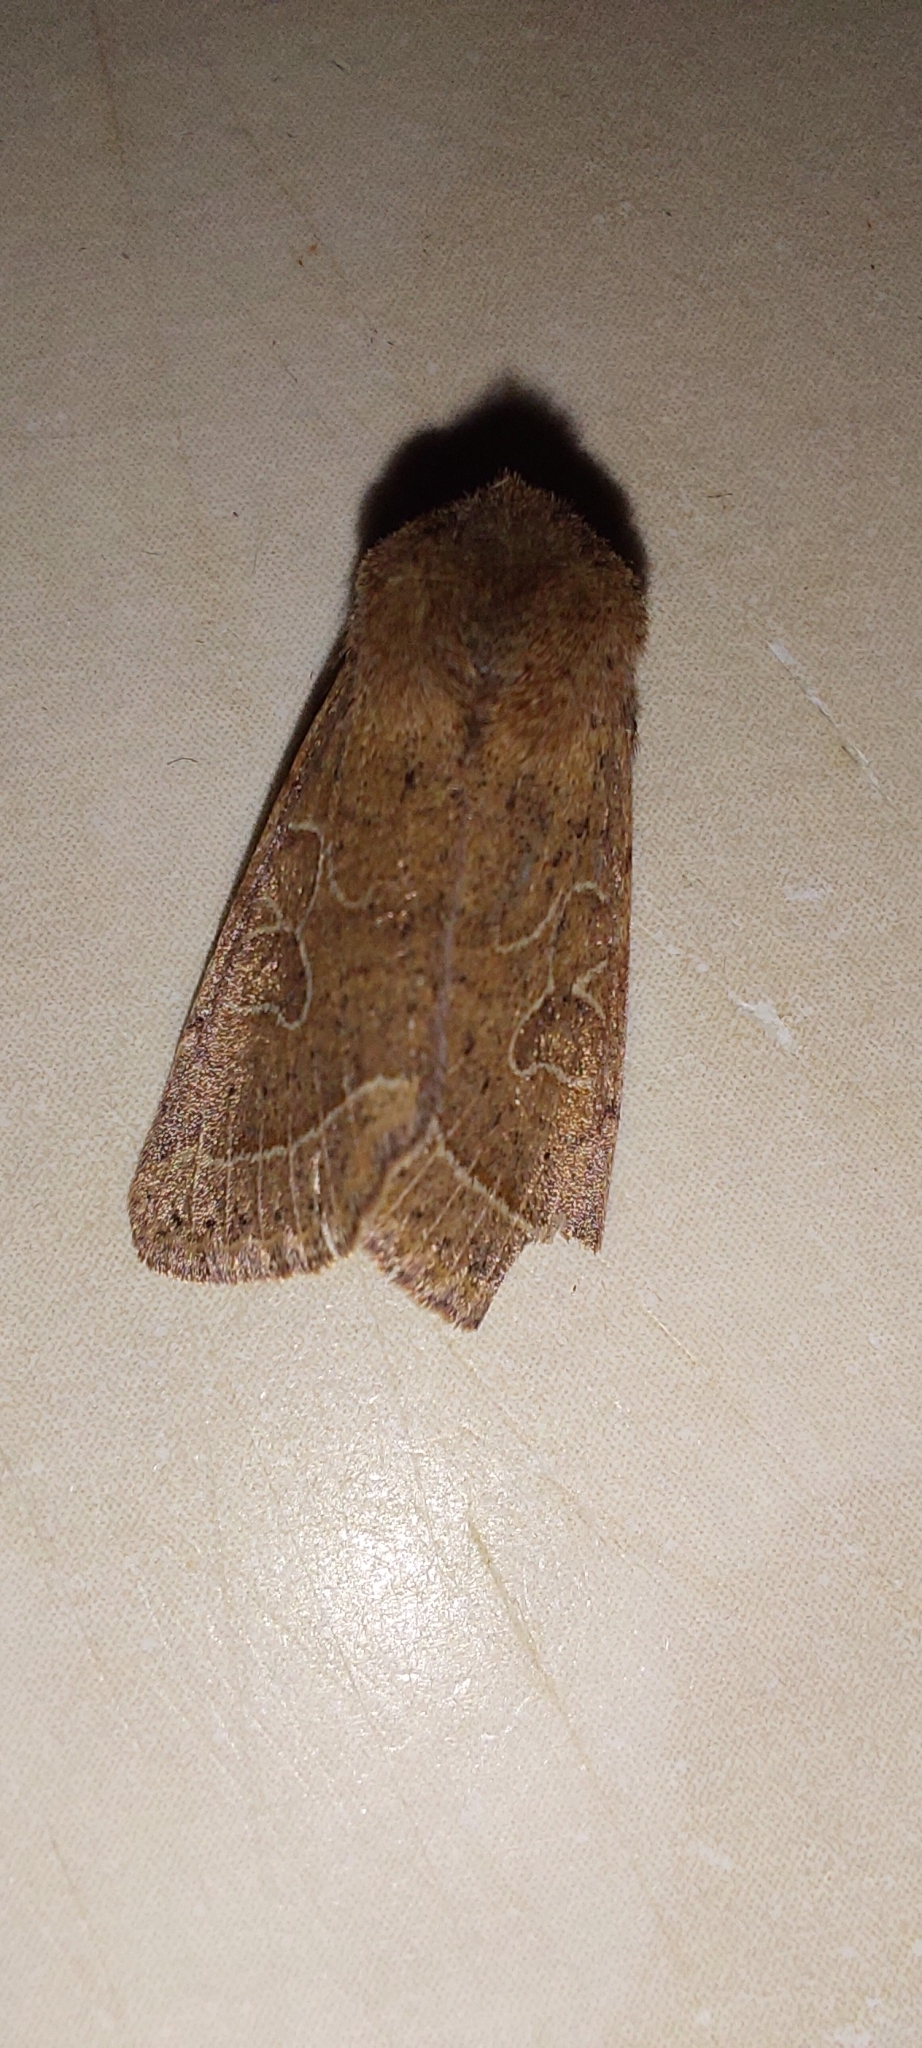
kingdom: Animalia
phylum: Arthropoda
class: Insecta
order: Lepidoptera
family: Noctuidae
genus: Orthosia
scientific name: Orthosia cerasi
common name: Common quaker
